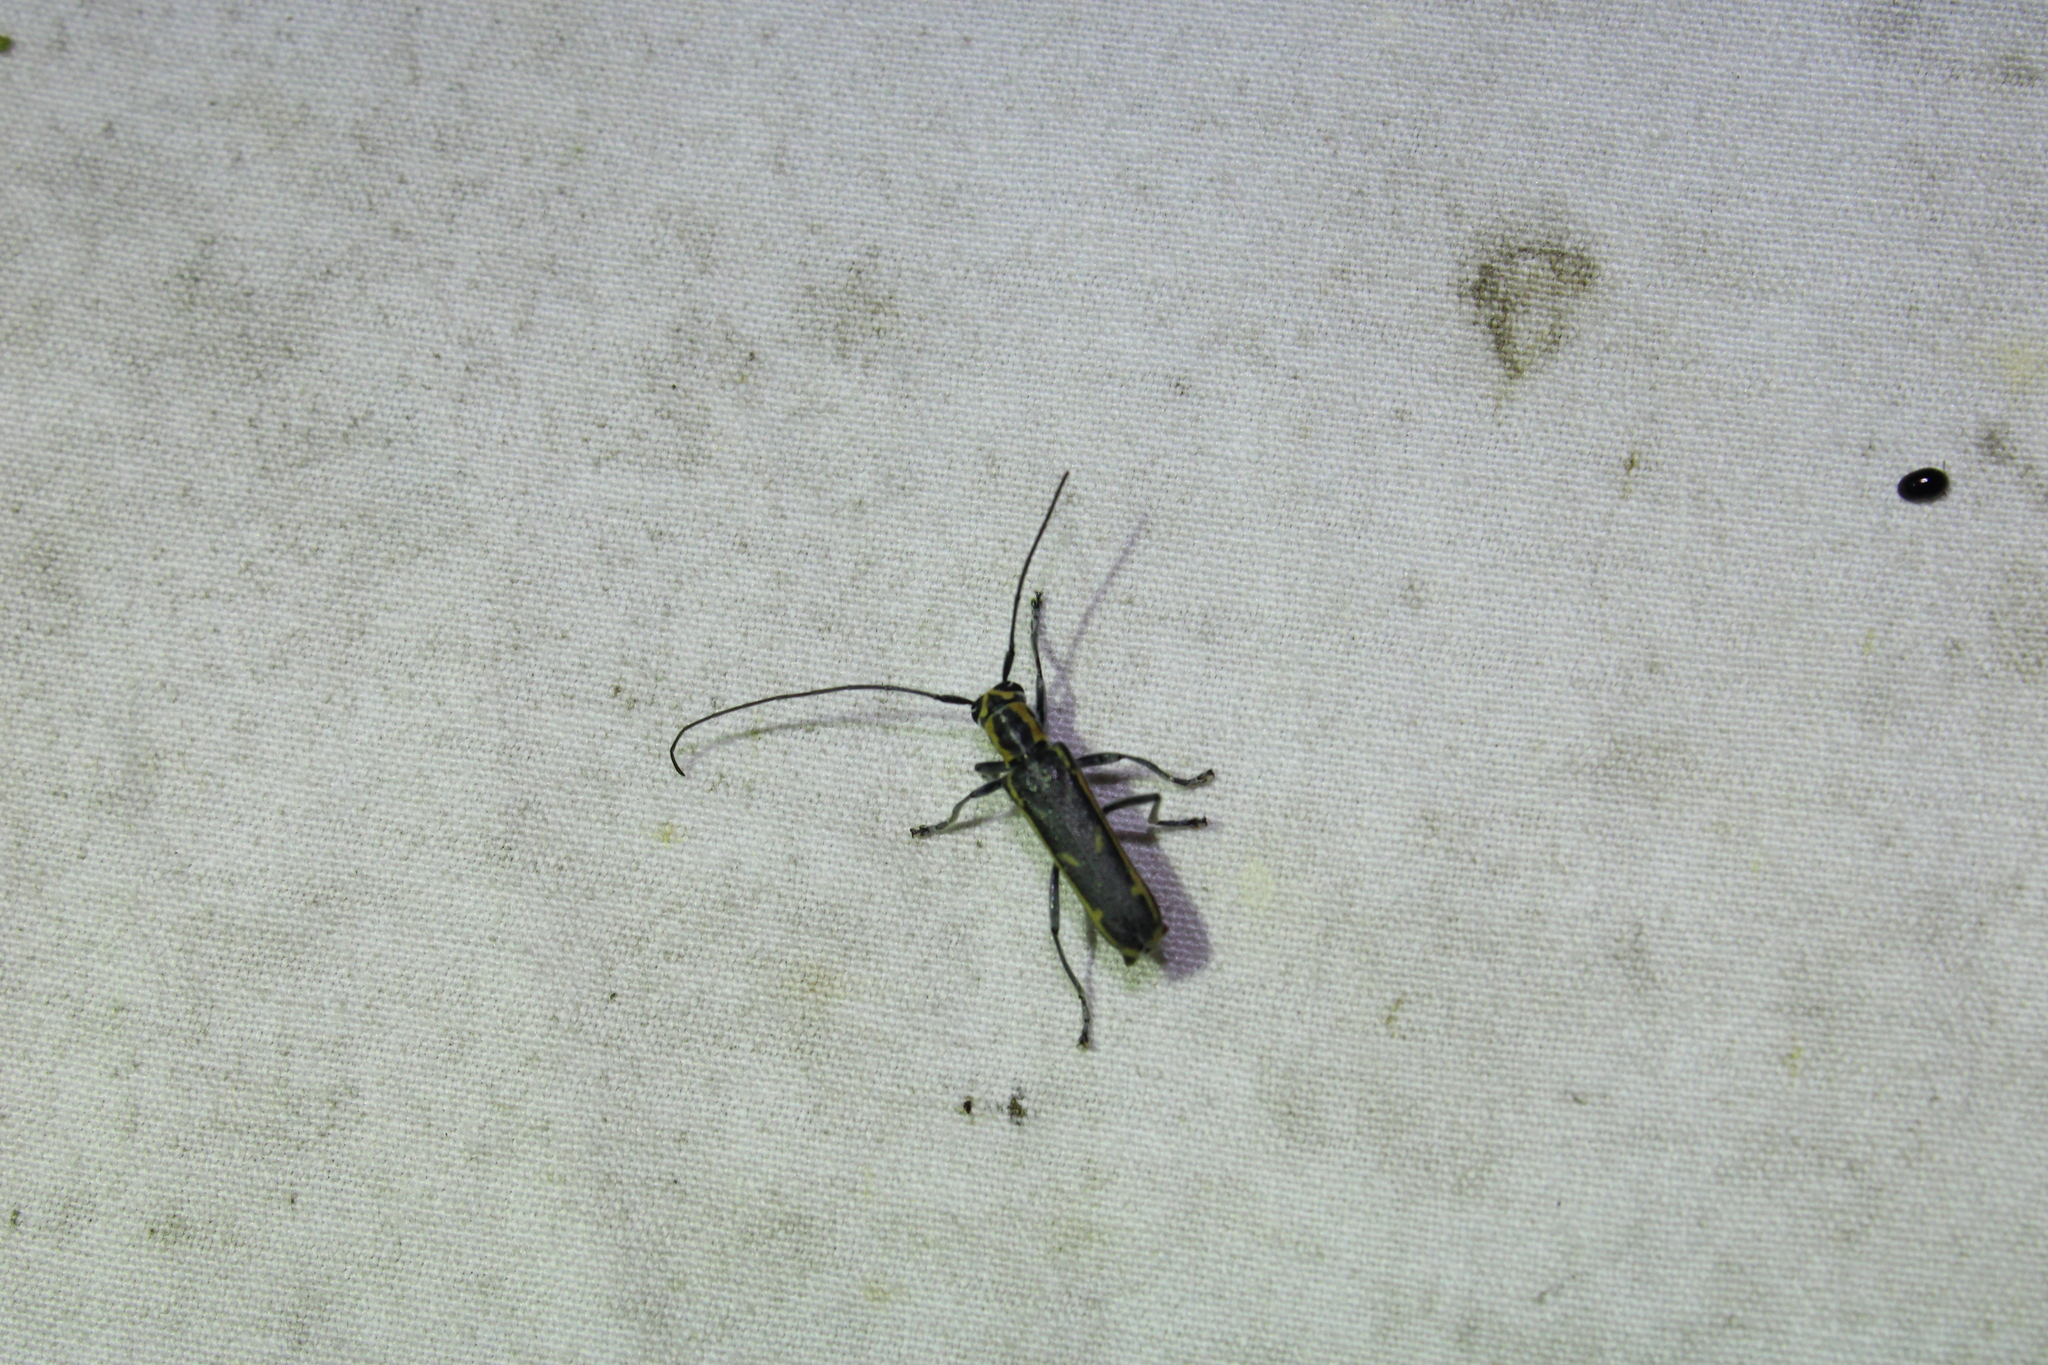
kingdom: Animalia
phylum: Arthropoda
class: Insecta
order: Coleoptera
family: Cerambycidae
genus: Saperda
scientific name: Saperda imitans
